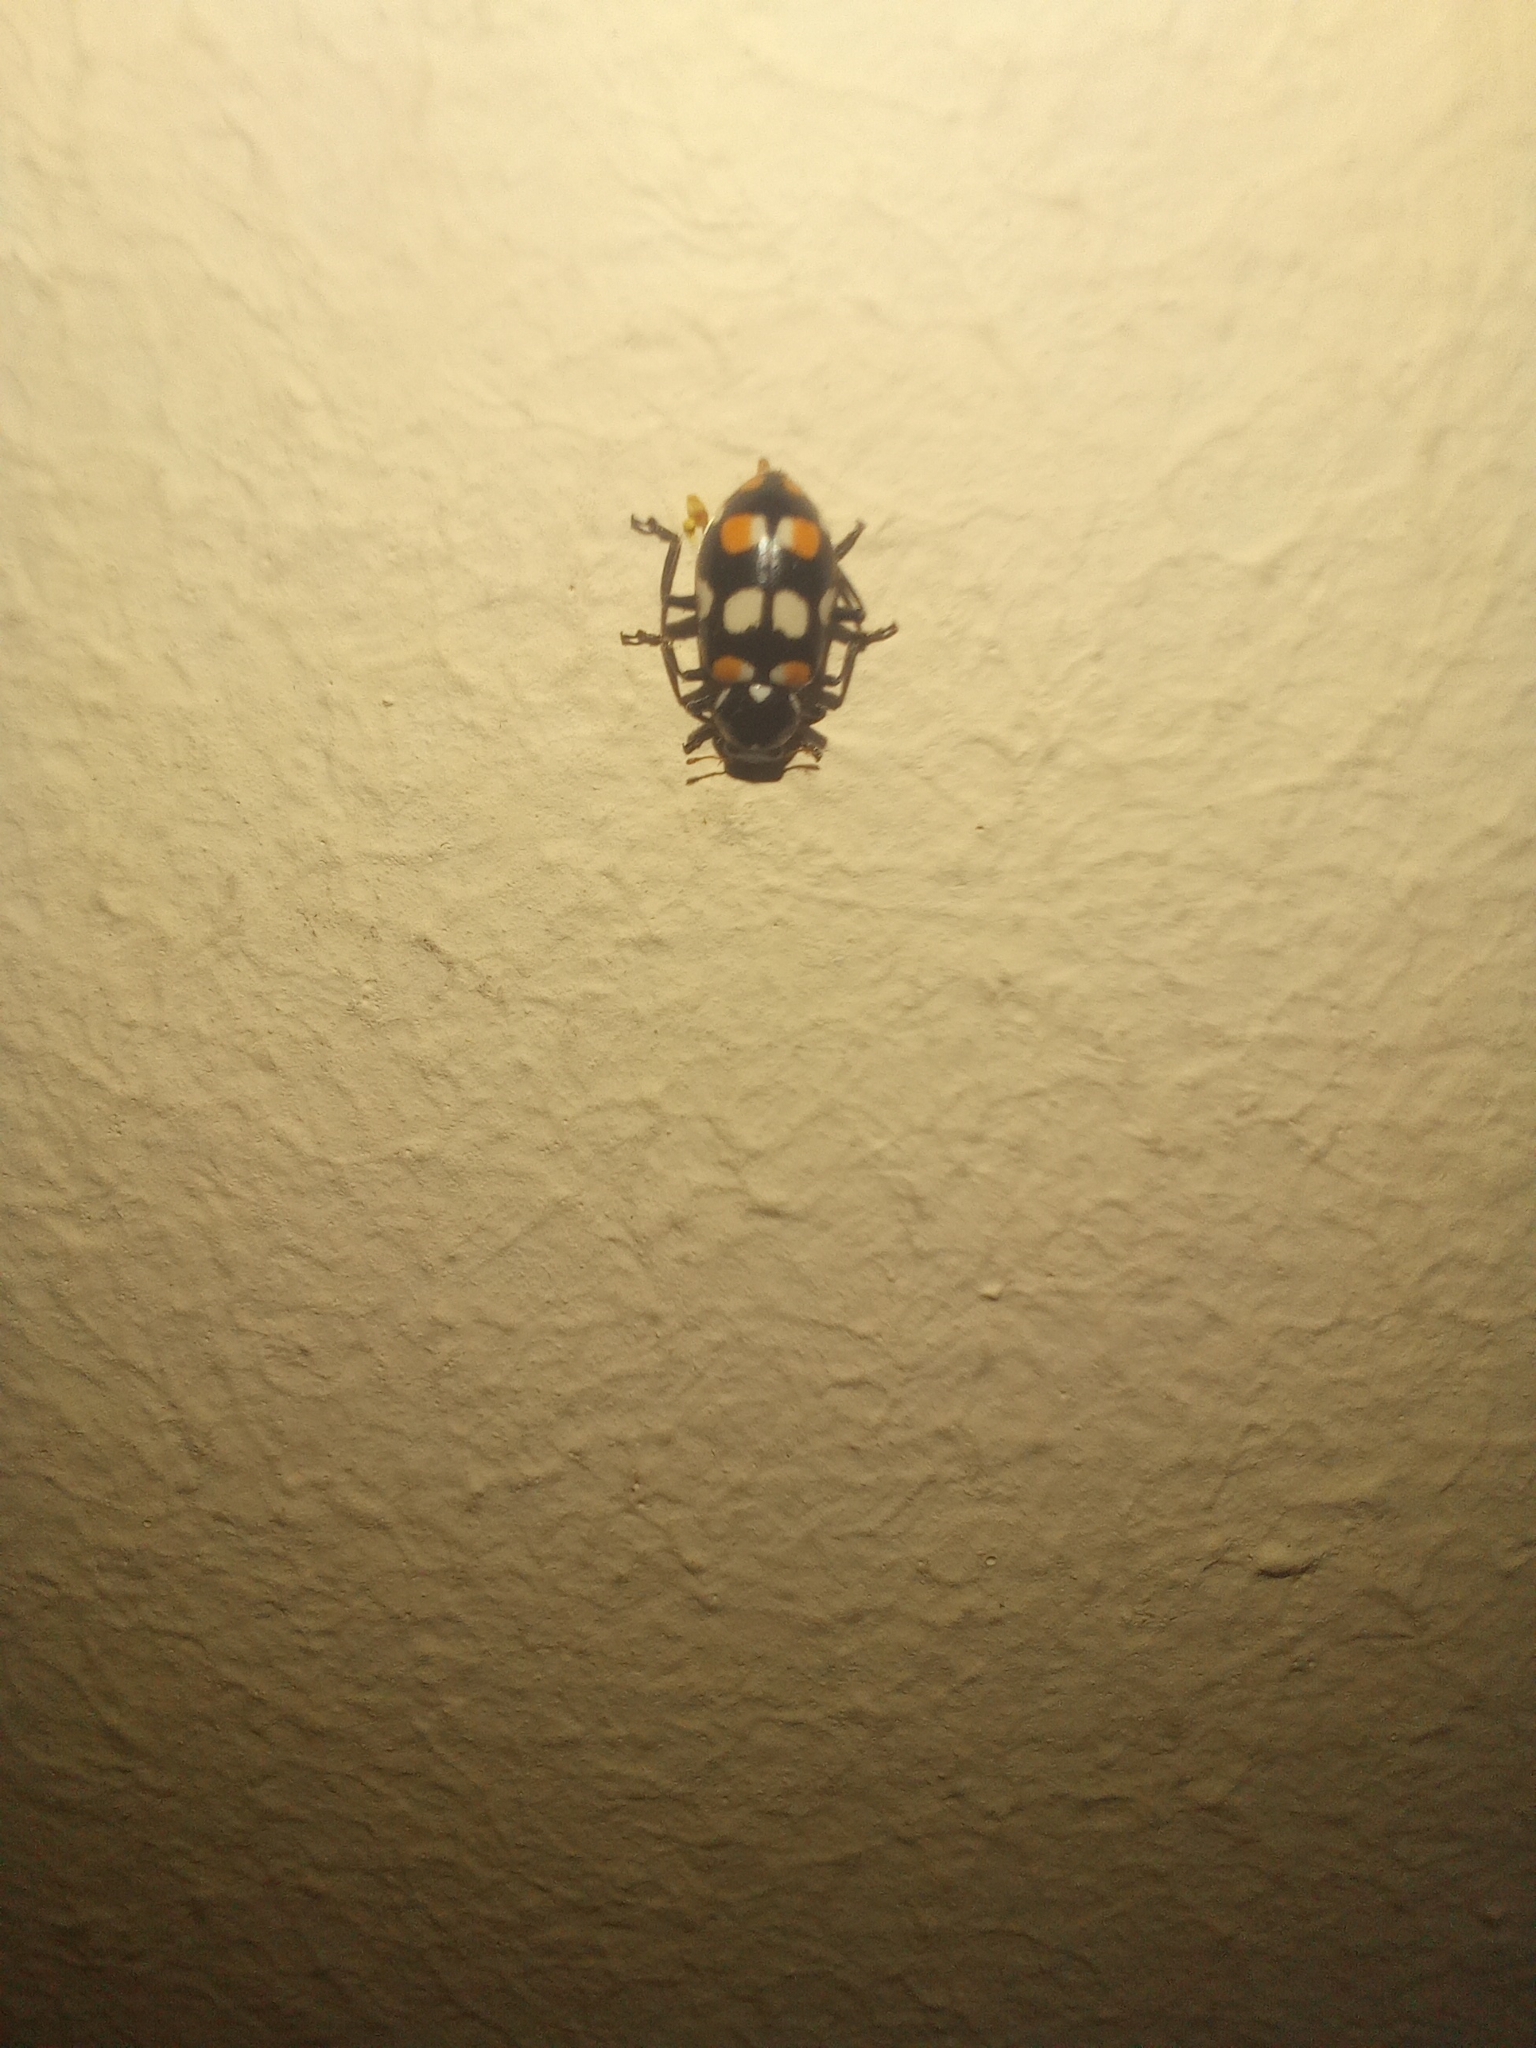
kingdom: Animalia
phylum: Arthropoda
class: Insecta
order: Coleoptera
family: Coccinellidae
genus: Eriopis
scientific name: Eriopis connexa
